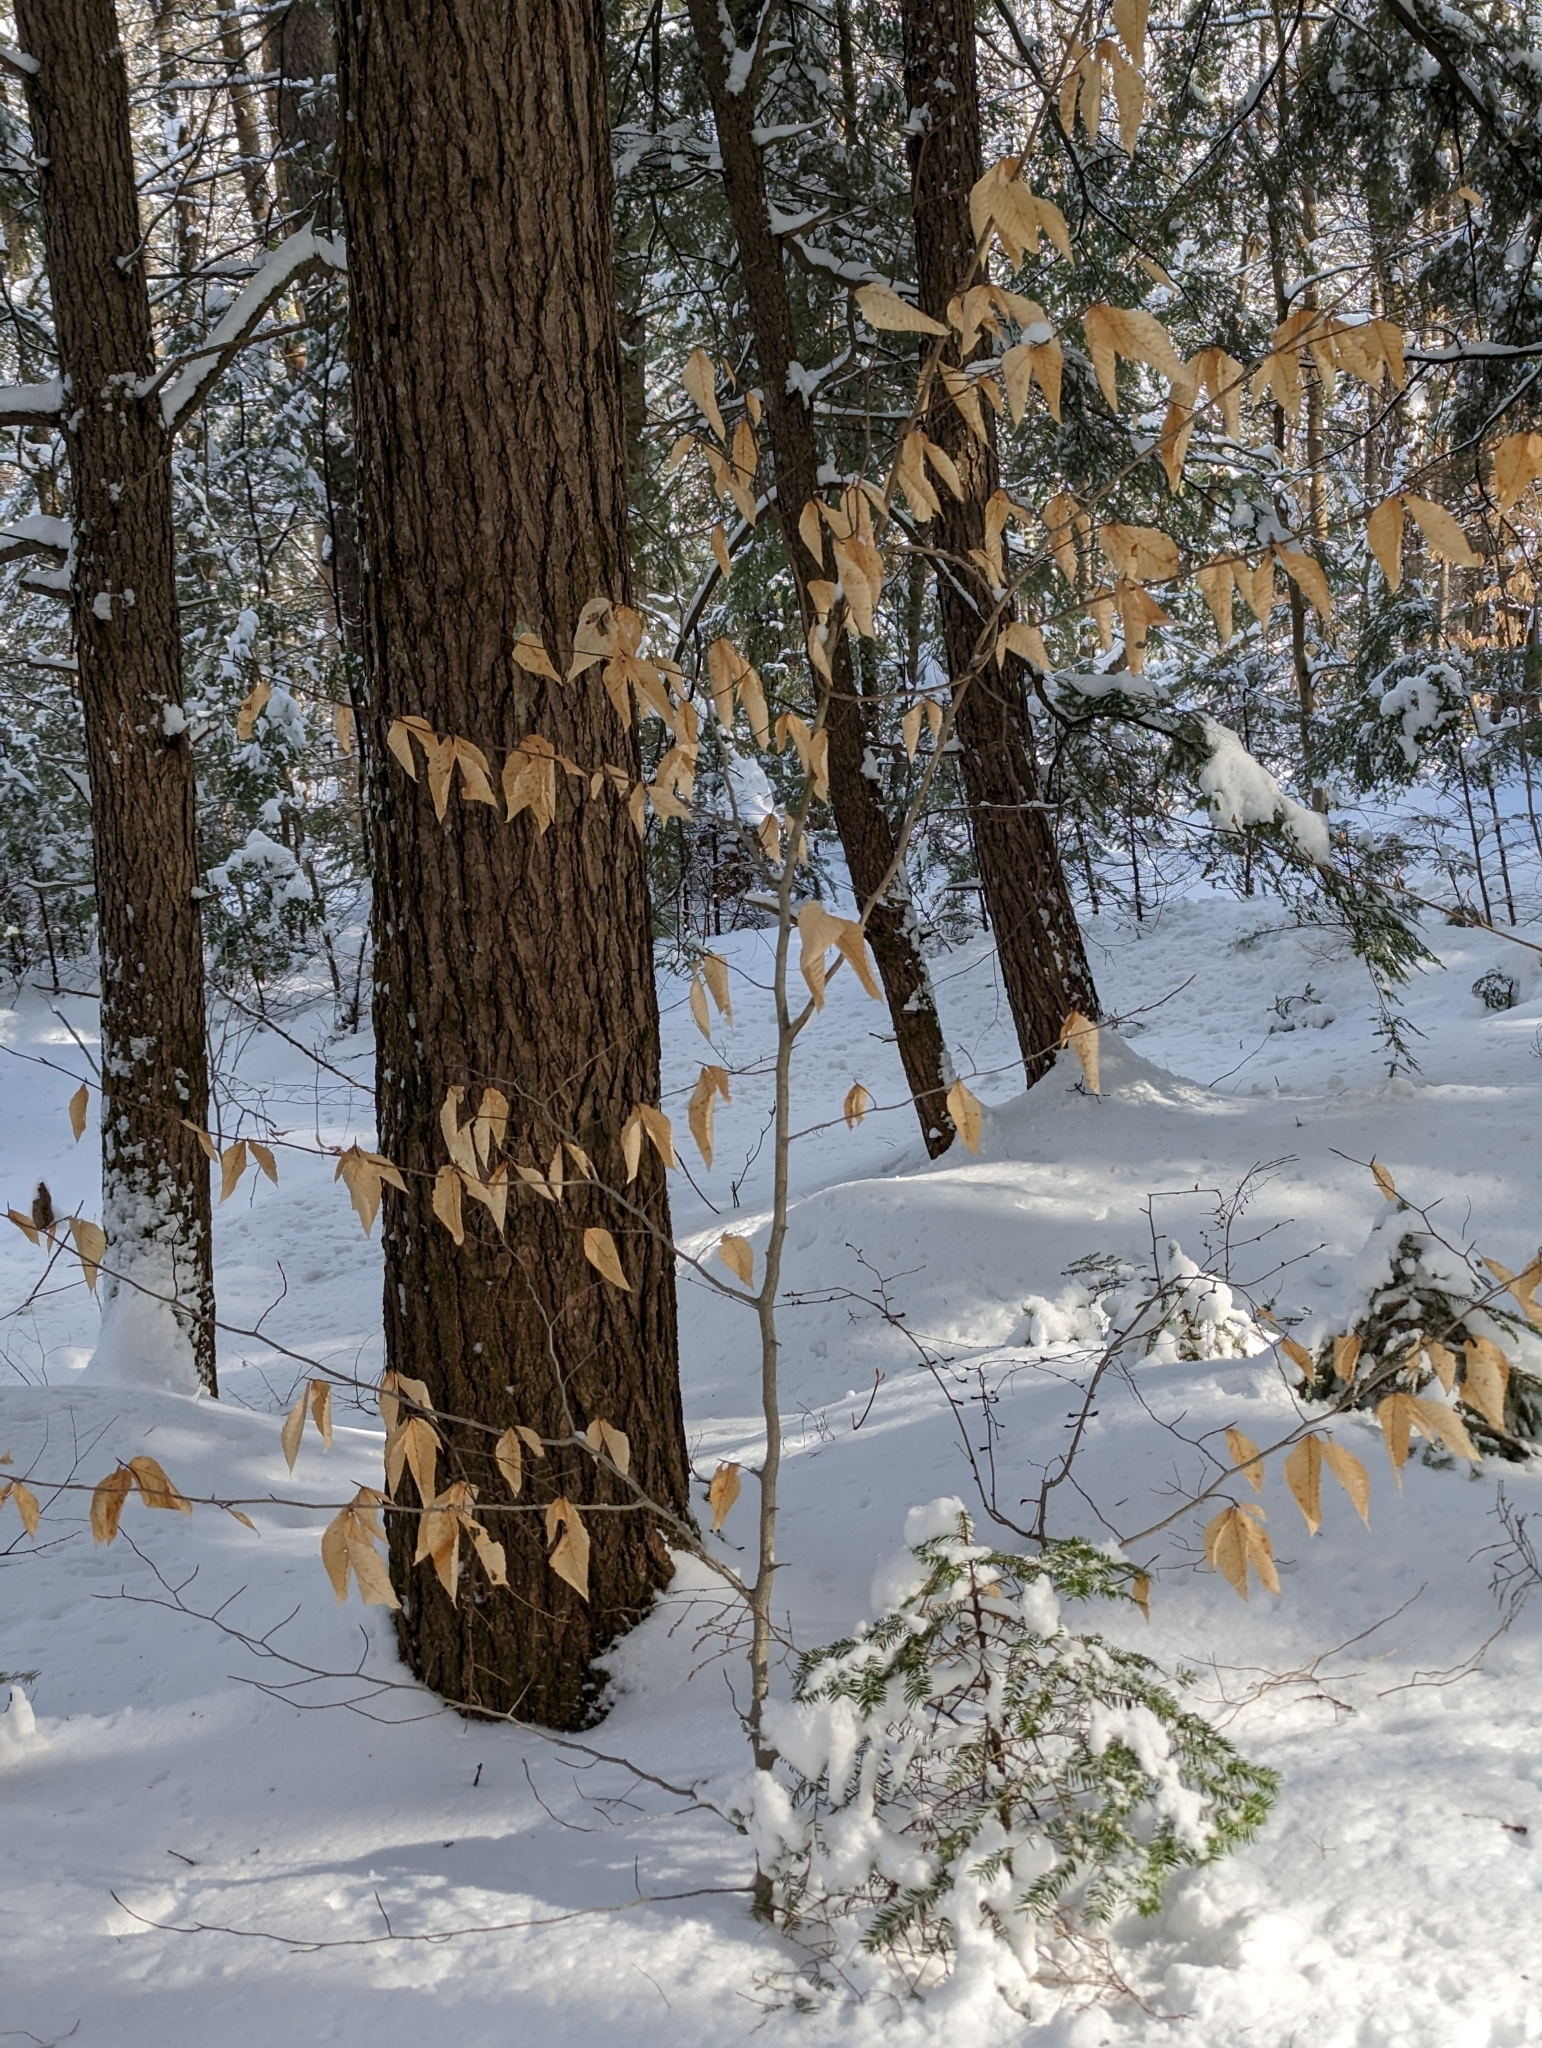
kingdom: Plantae
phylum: Tracheophyta
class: Magnoliopsida
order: Fagales
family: Fagaceae
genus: Fagus
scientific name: Fagus grandifolia
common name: American beech
